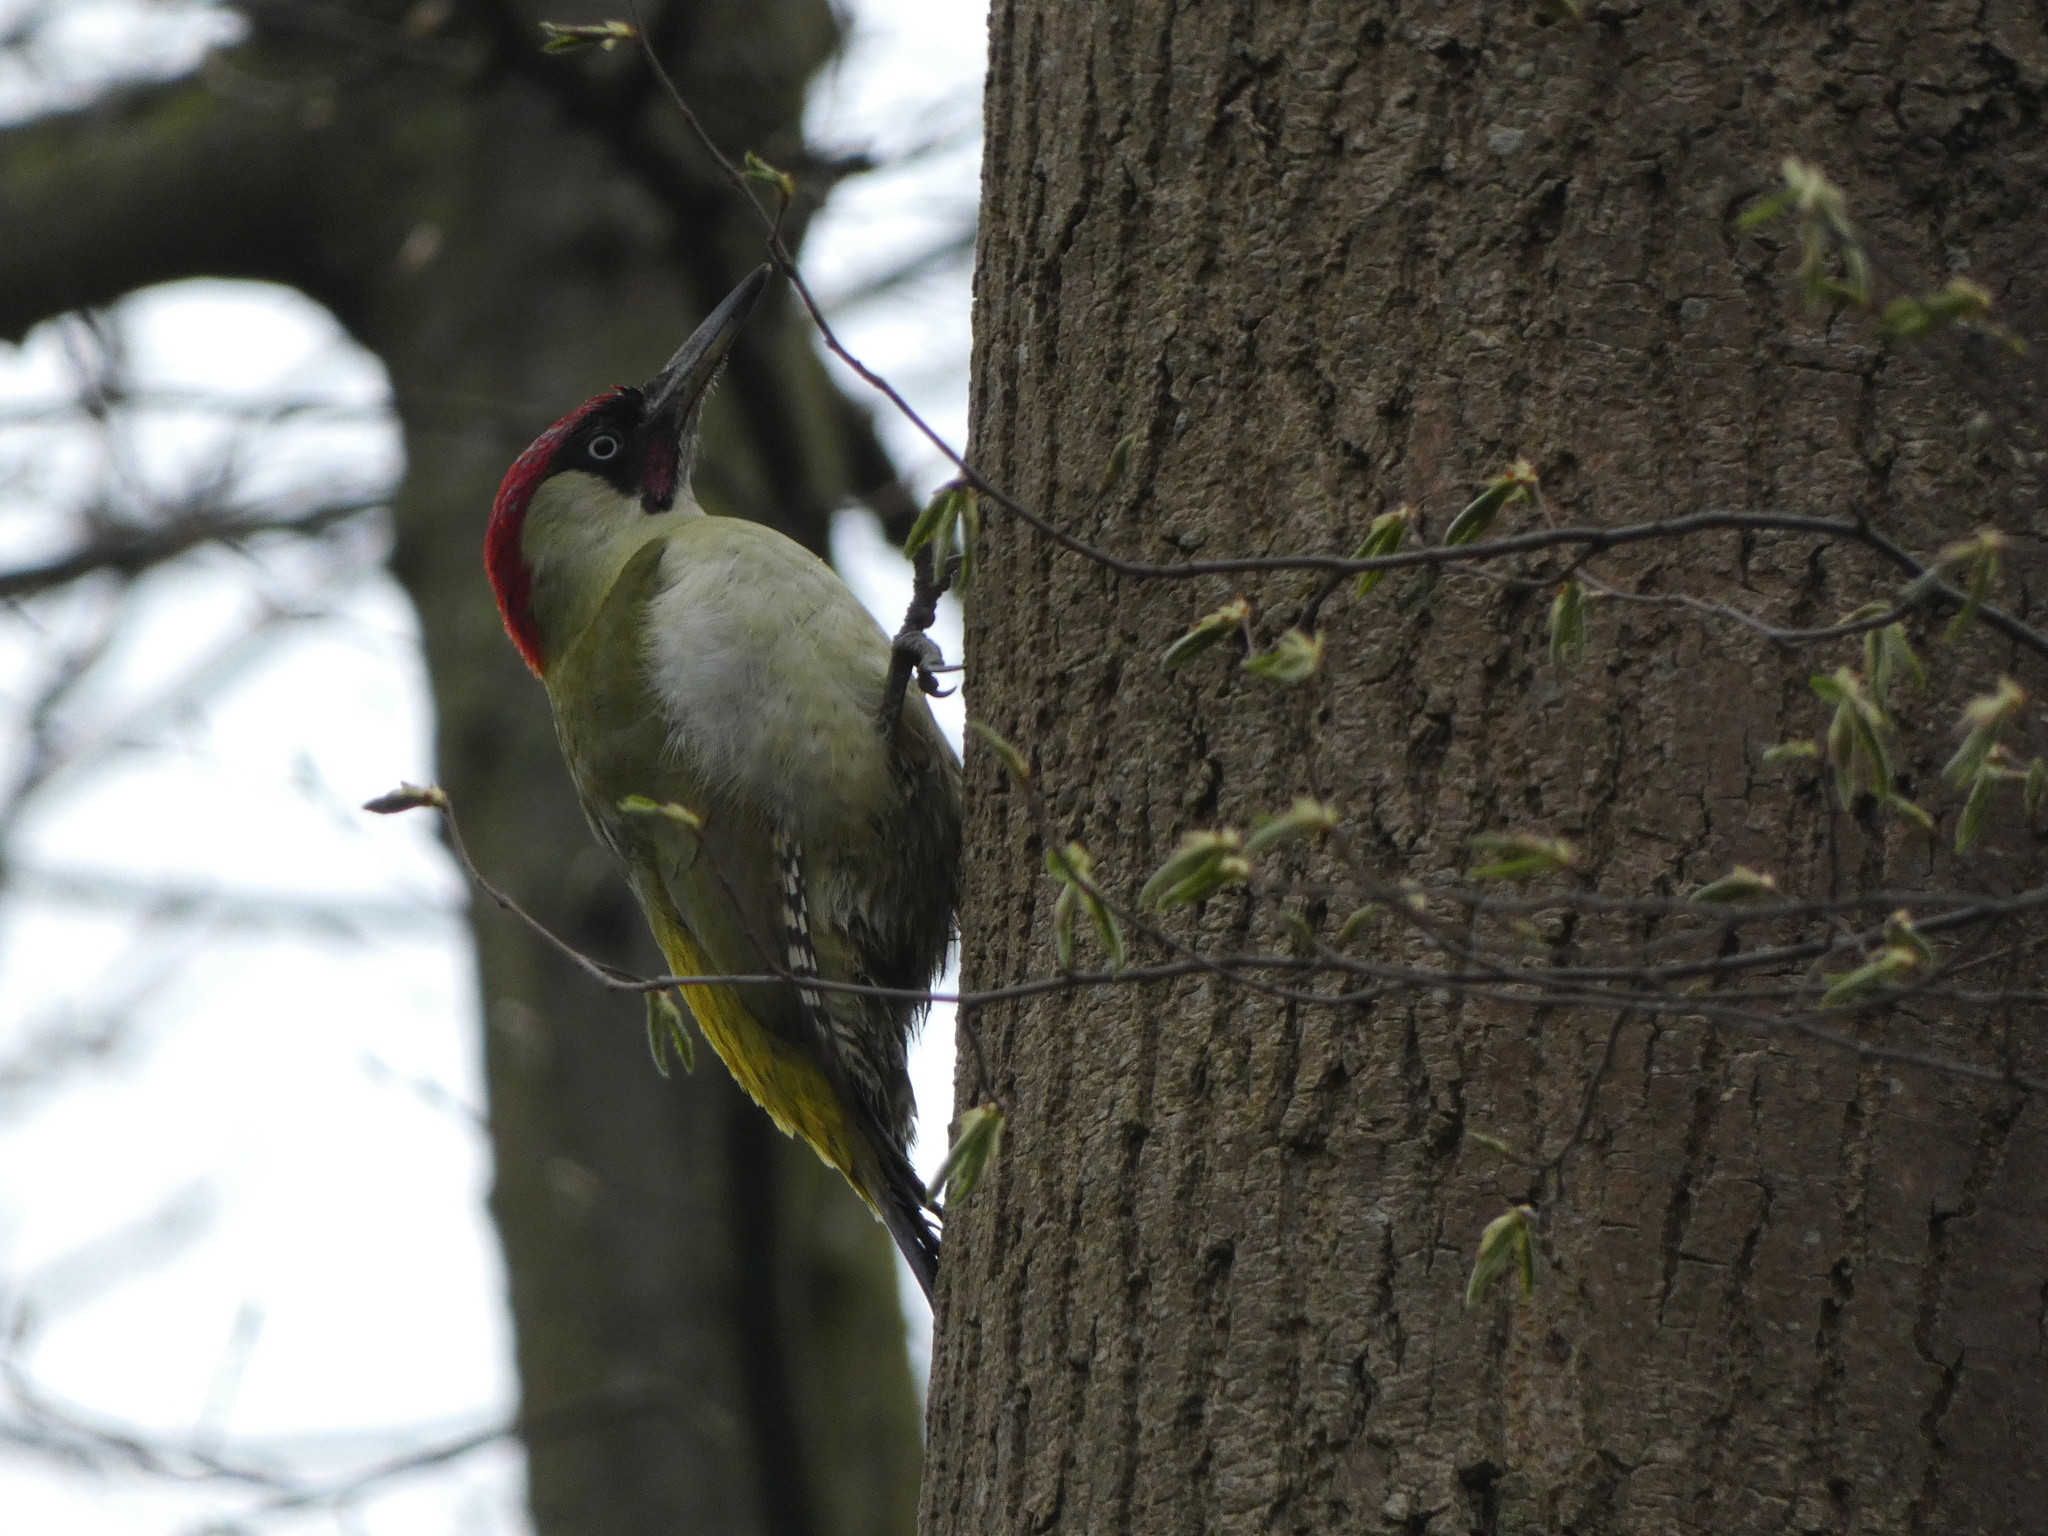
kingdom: Animalia
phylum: Chordata
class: Aves
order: Piciformes
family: Picidae
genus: Picus
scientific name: Picus viridis
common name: European green woodpecker
